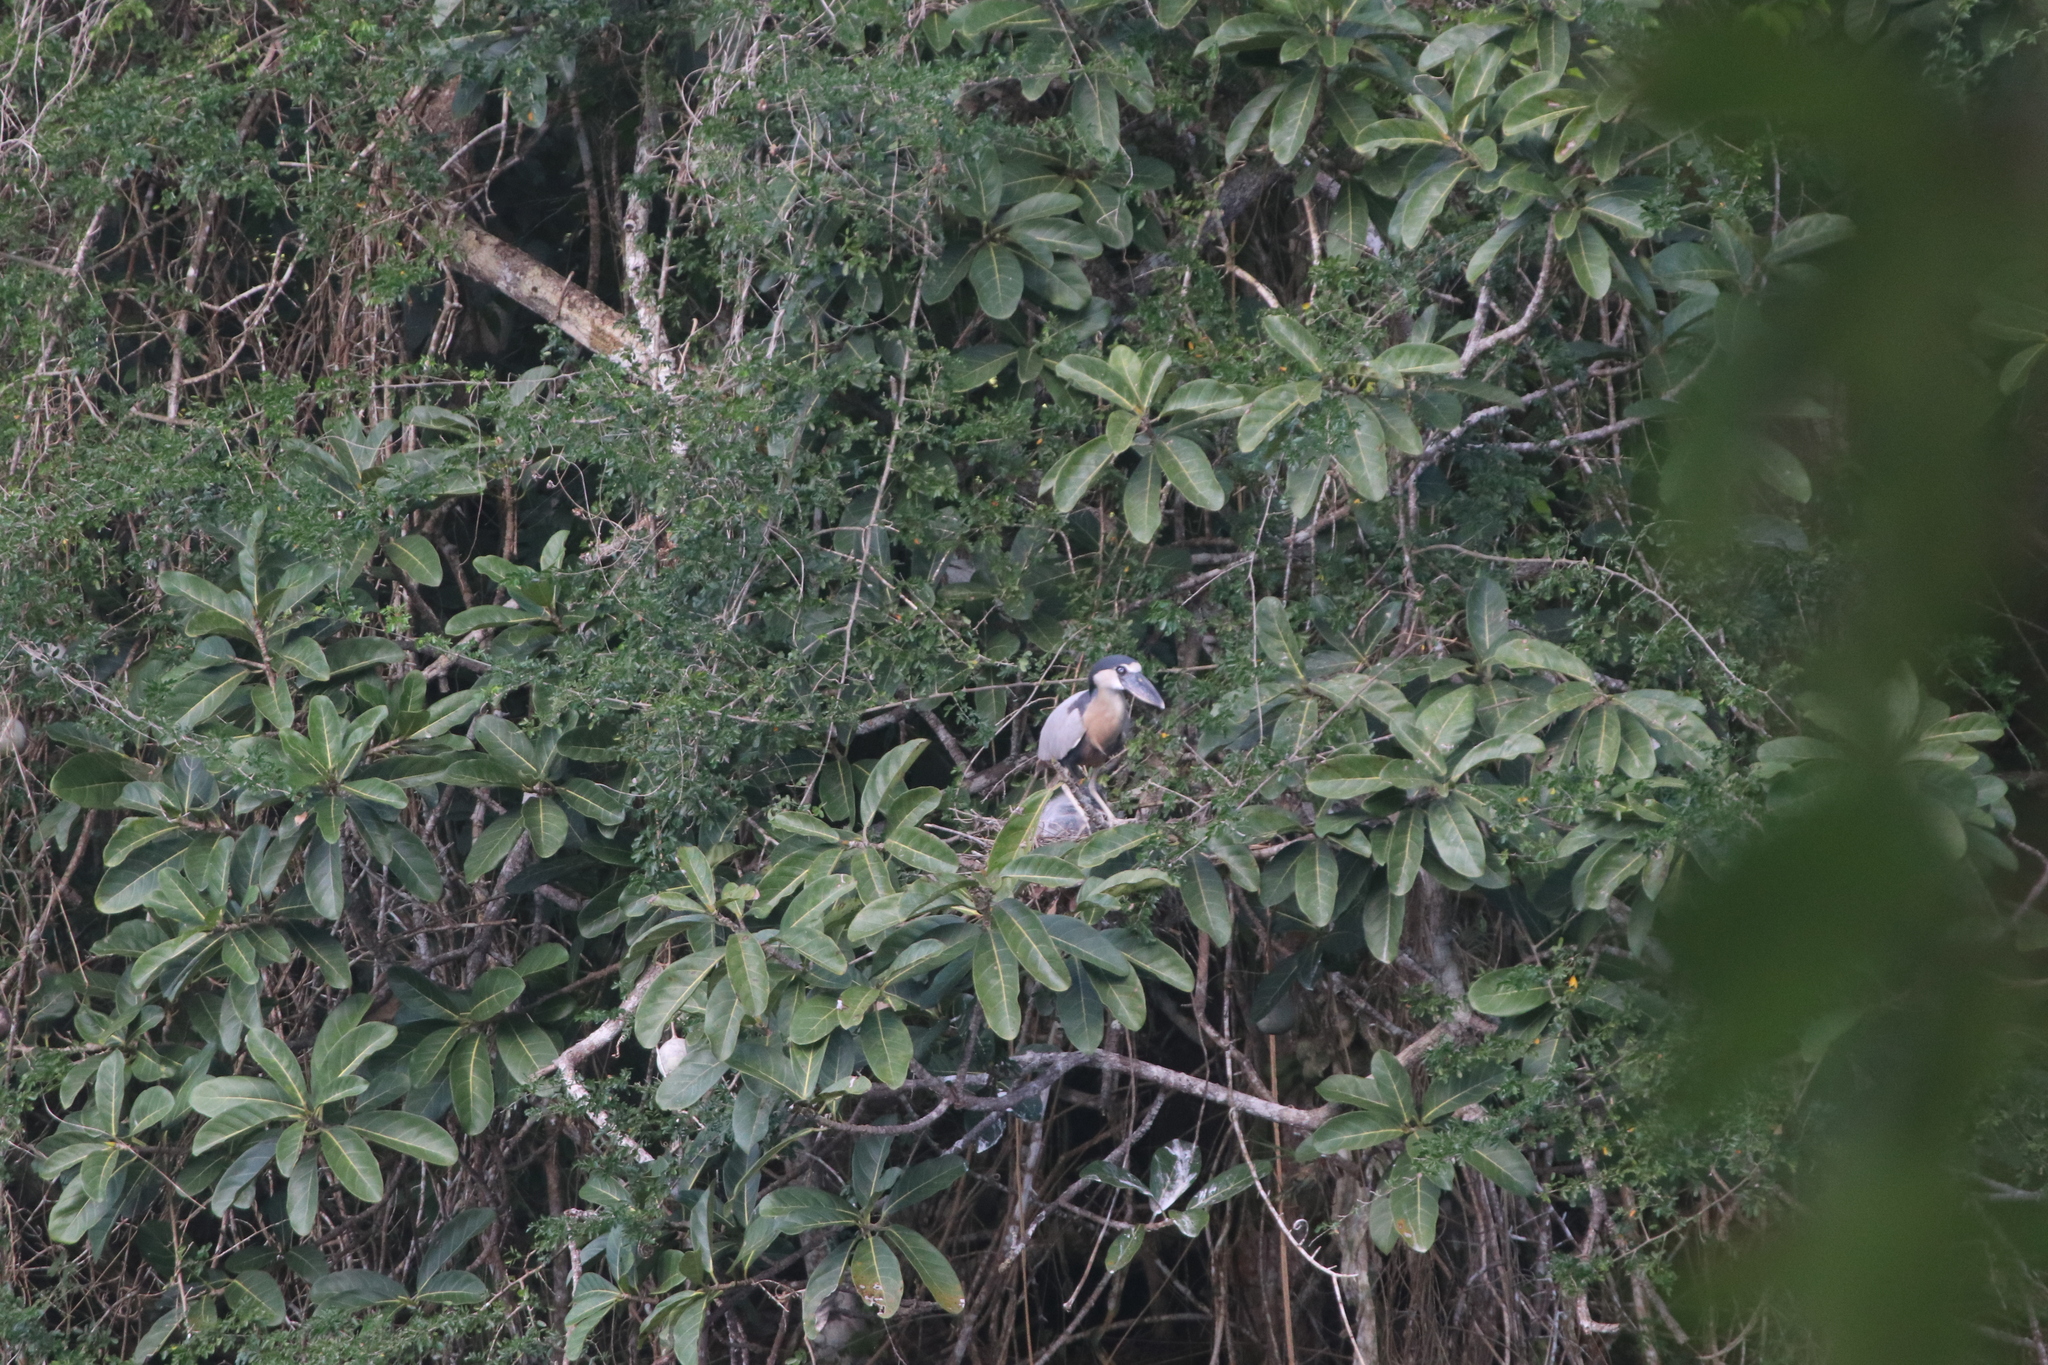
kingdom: Animalia
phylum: Chordata
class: Aves
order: Pelecaniformes
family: Ardeidae
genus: Cochlearius
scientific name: Cochlearius cochlearius
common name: Boat-billed heron
